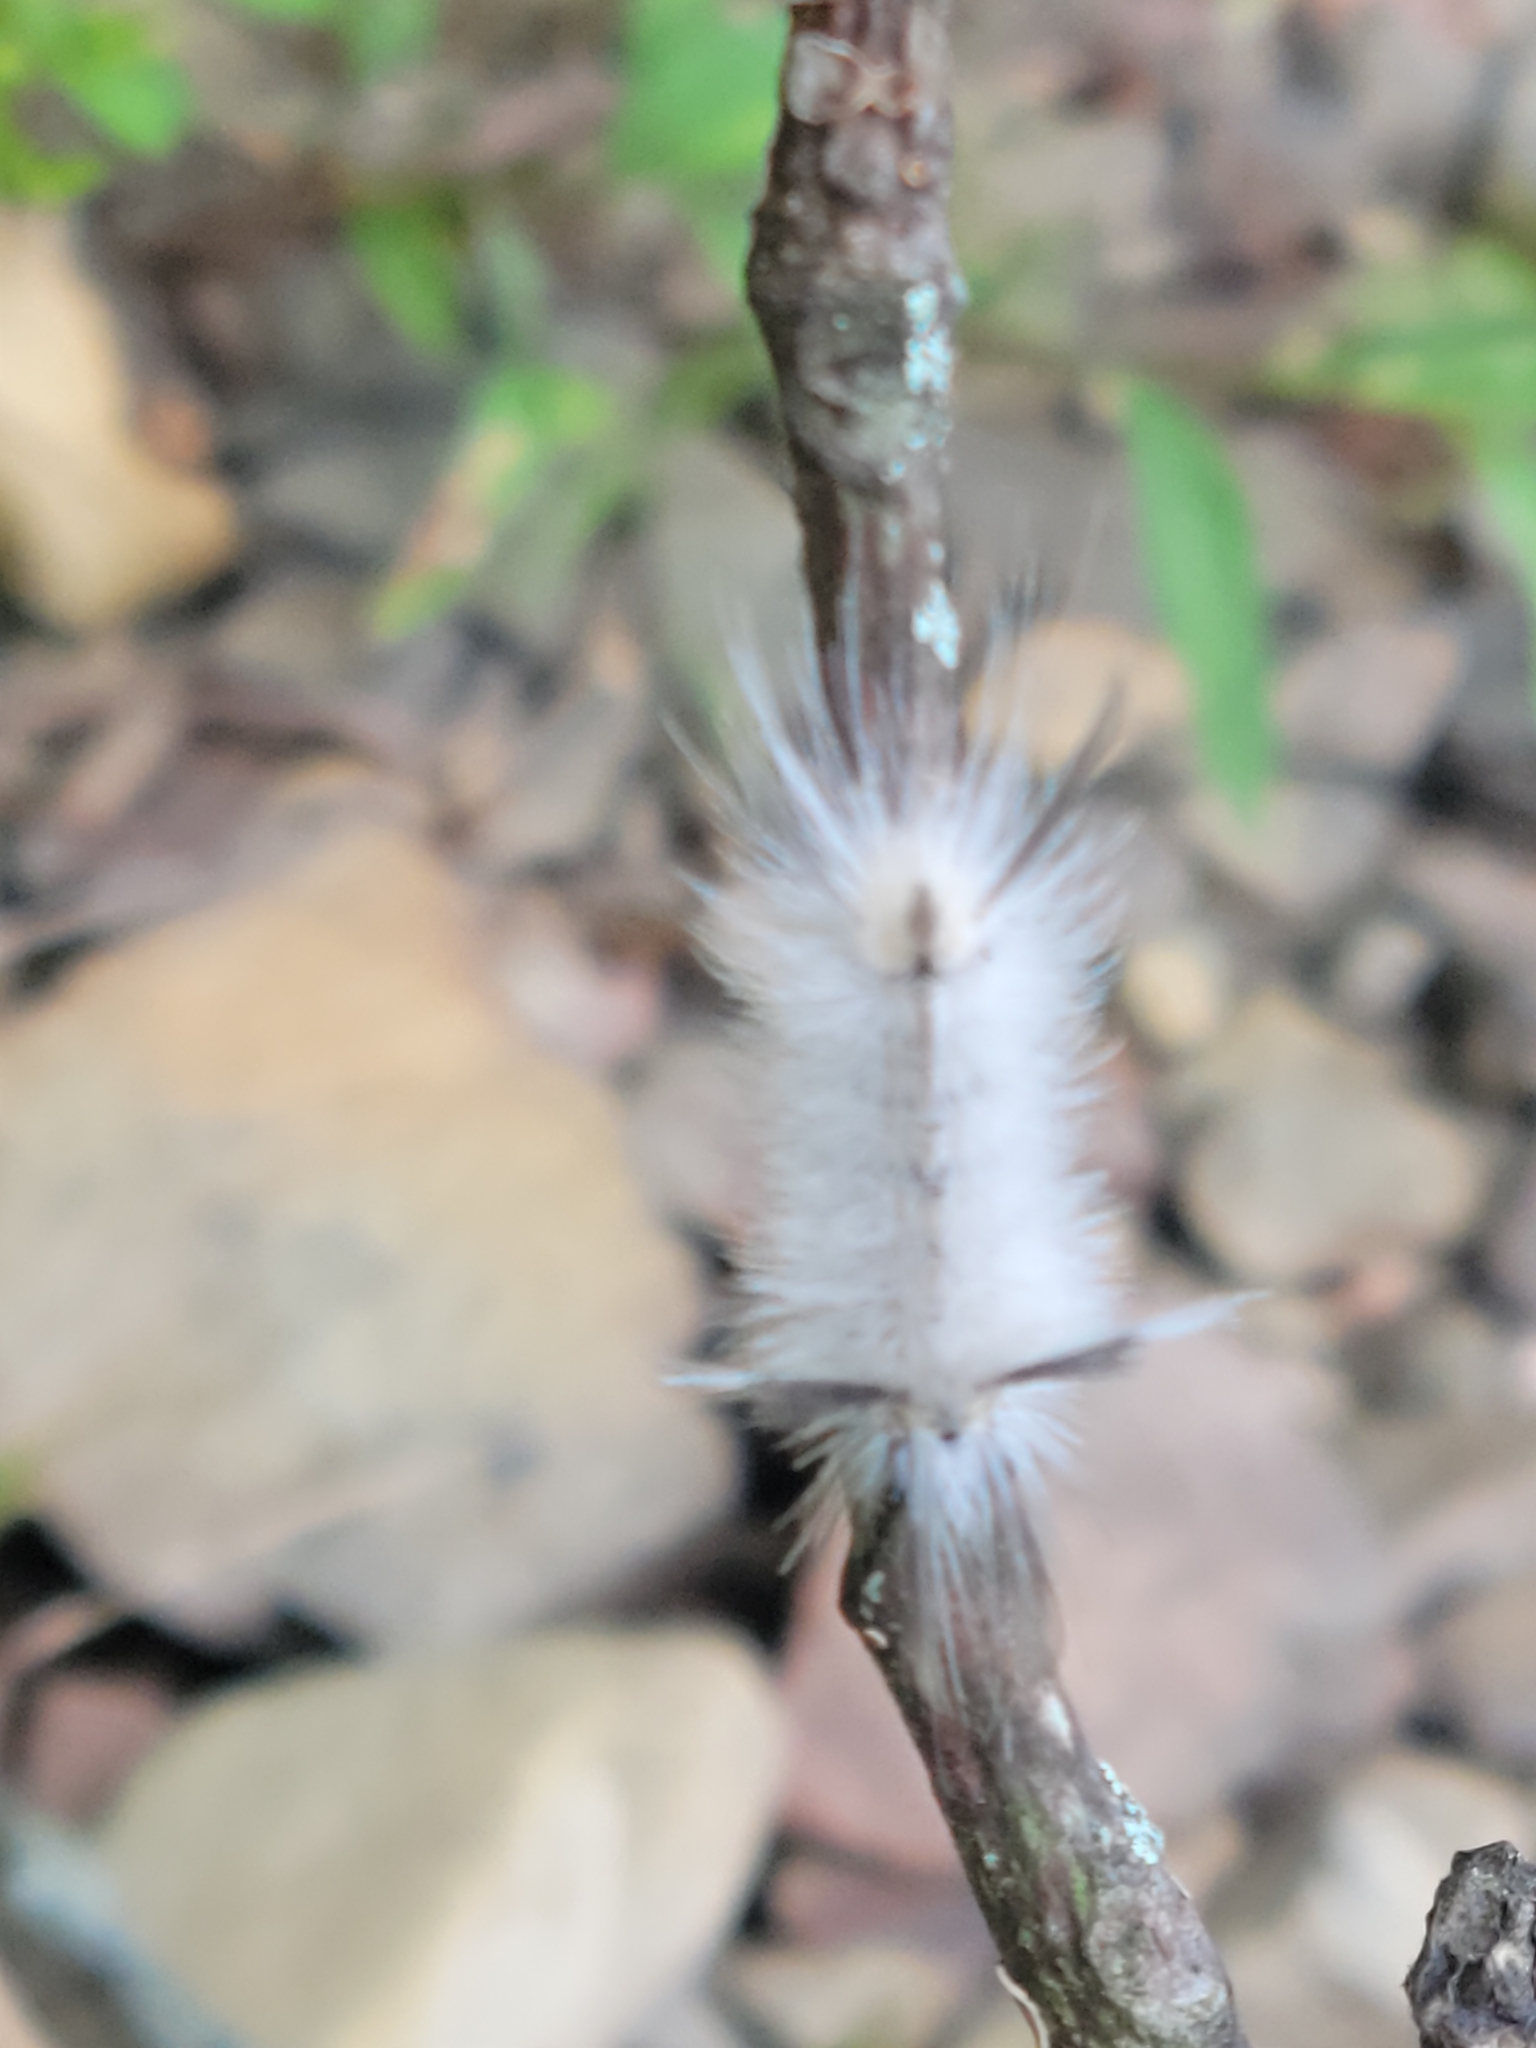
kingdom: Animalia
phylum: Arthropoda
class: Insecta
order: Lepidoptera
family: Erebidae
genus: Halysidota
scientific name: Halysidota tessellaris
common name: Banded tussock moth
